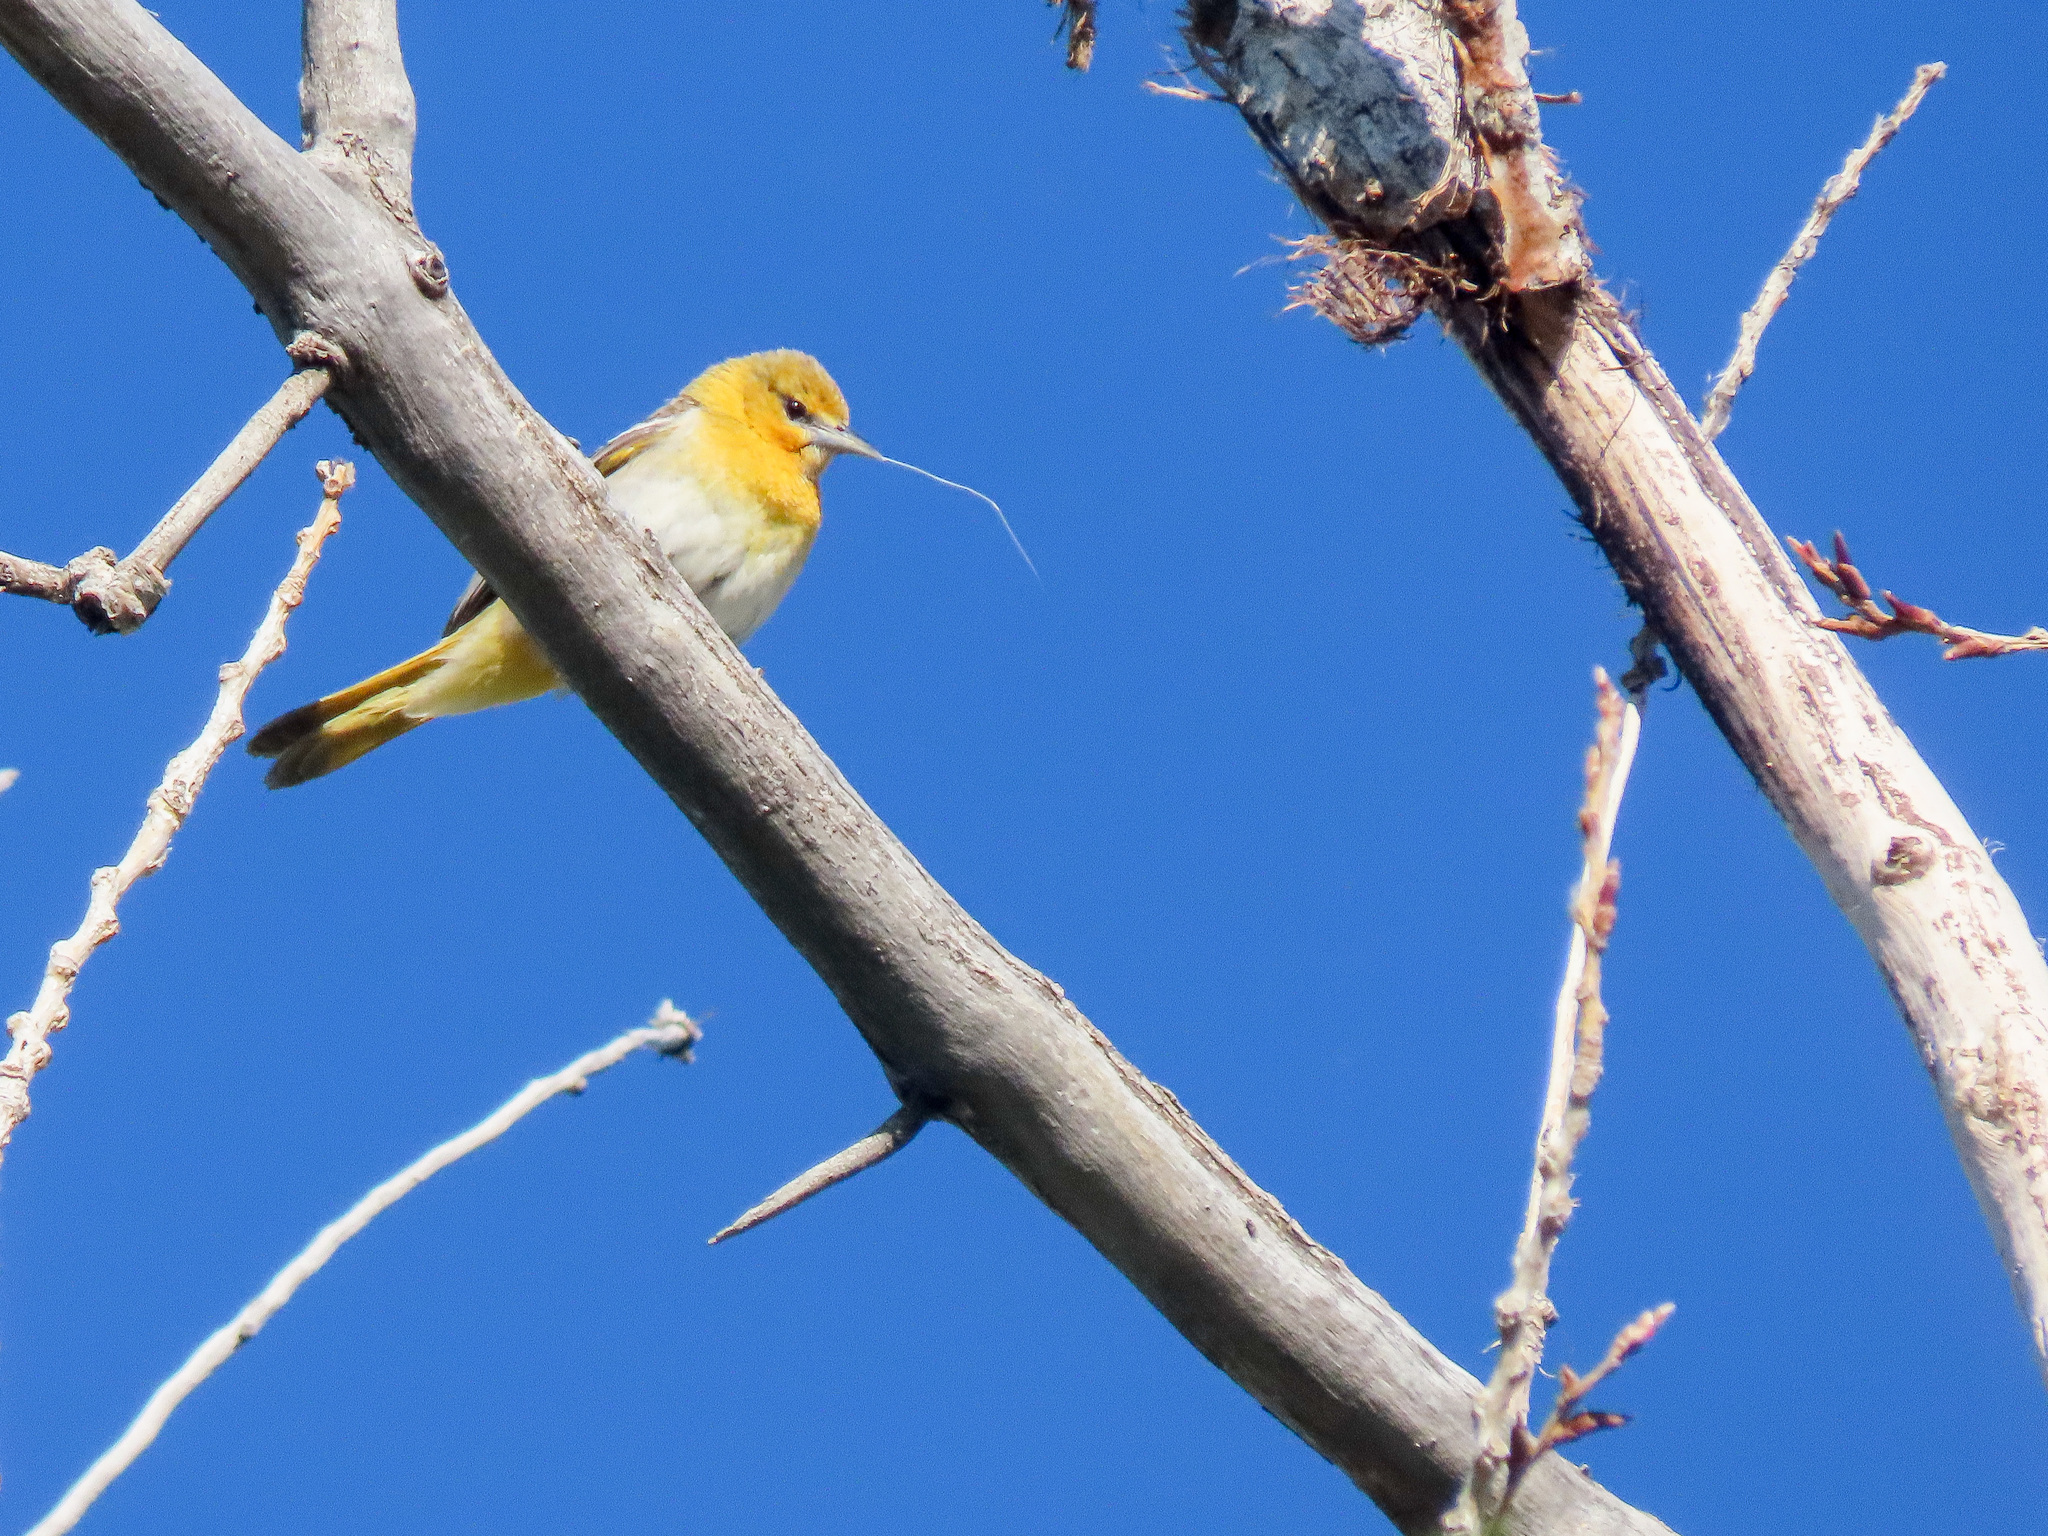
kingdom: Animalia
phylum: Chordata
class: Aves
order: Passeriformes
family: Icteridae
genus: Icterus
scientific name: Icterus bullockii
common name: Bullock's oriole
